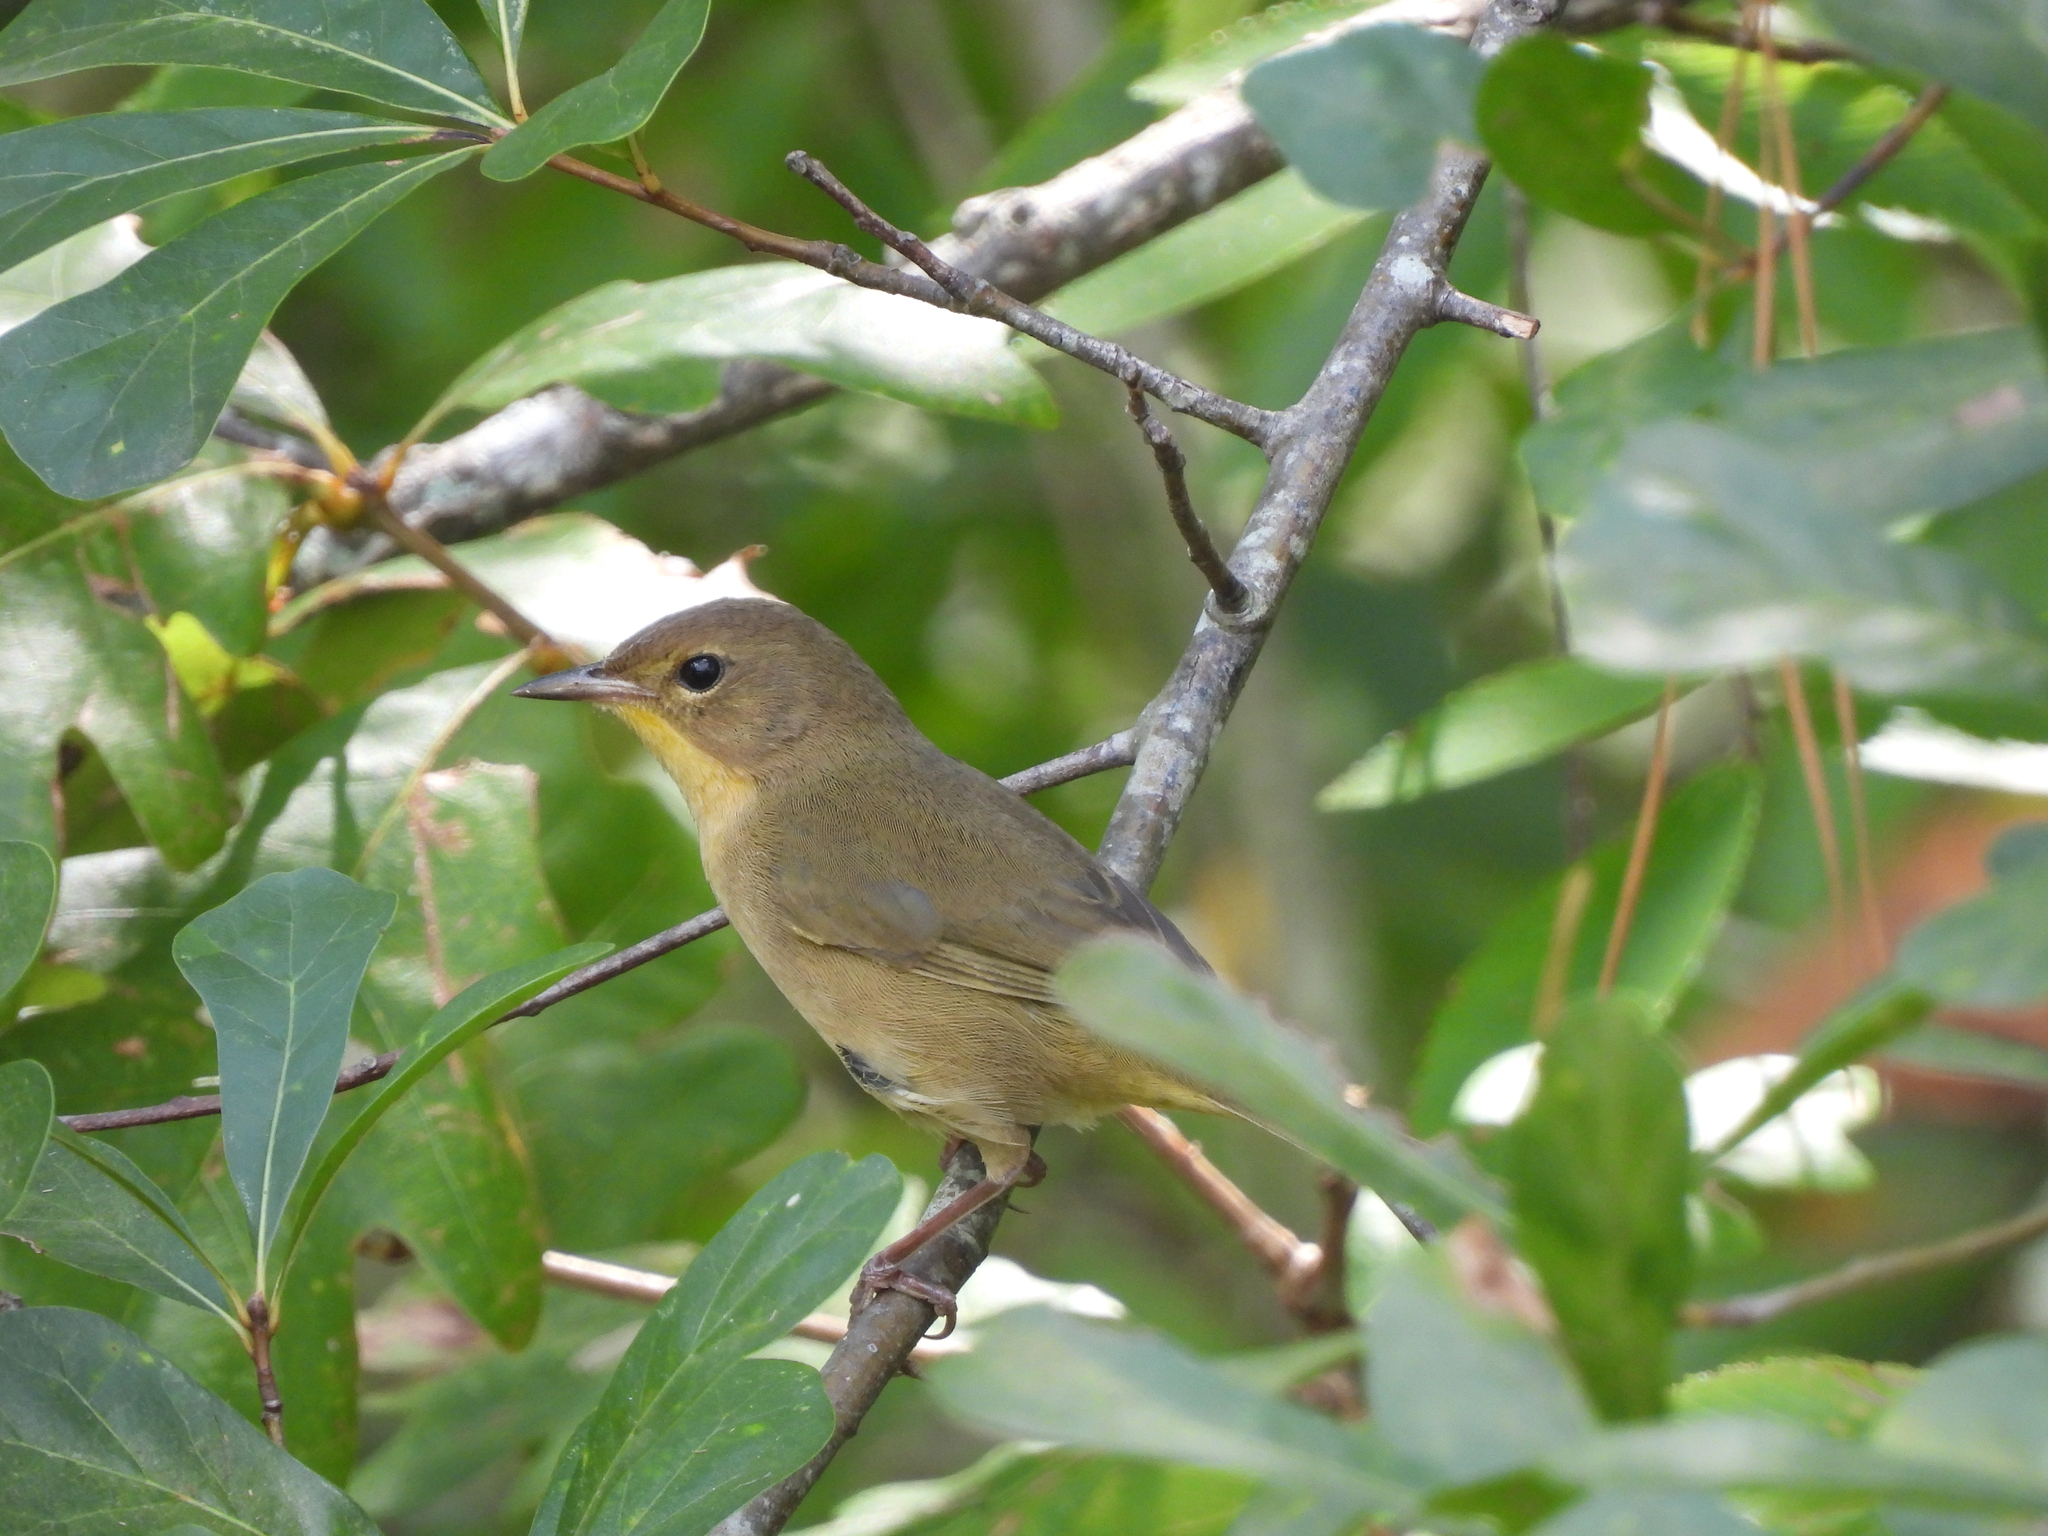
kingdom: Animalia
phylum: Chordata
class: Aves
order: Passeriformes
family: Parulidae
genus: Geothlypis
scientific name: Geothlypis trichas
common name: Common yellowthroat
